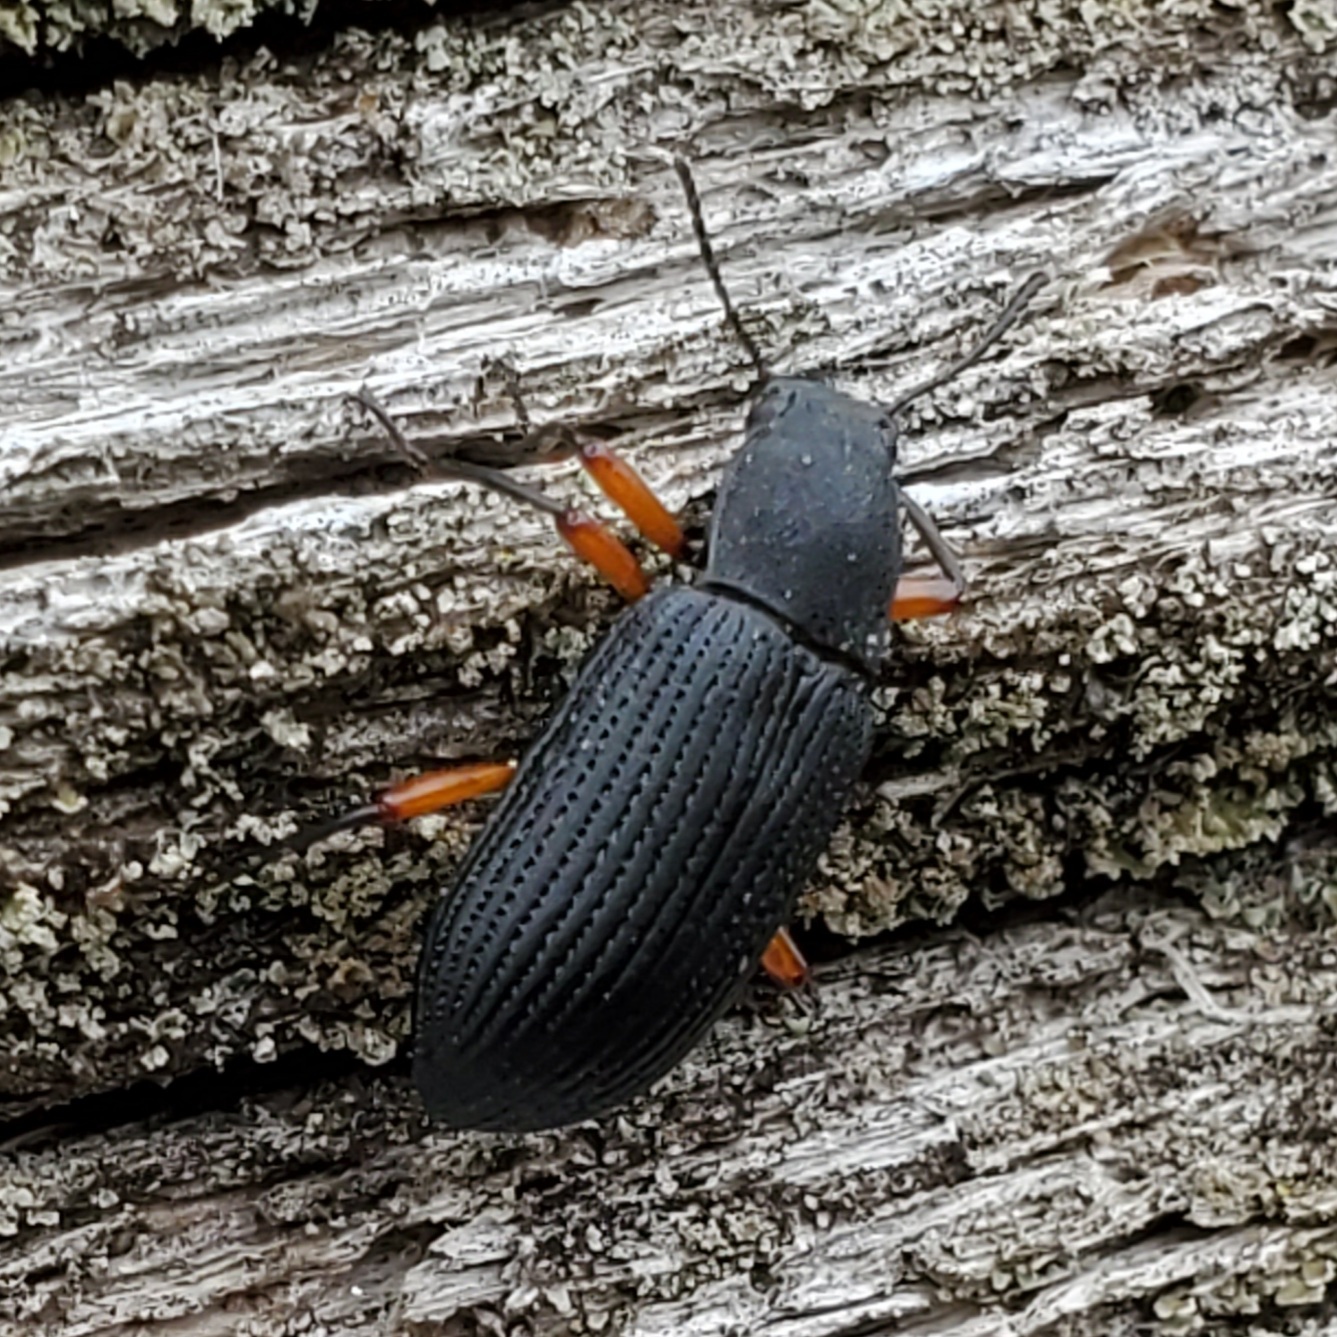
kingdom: Animalia
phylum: Arthropoda
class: Insecta
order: Coleoptera
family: Tenebrionidae
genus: Haplandrus
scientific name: Haplandrus fulvipes
